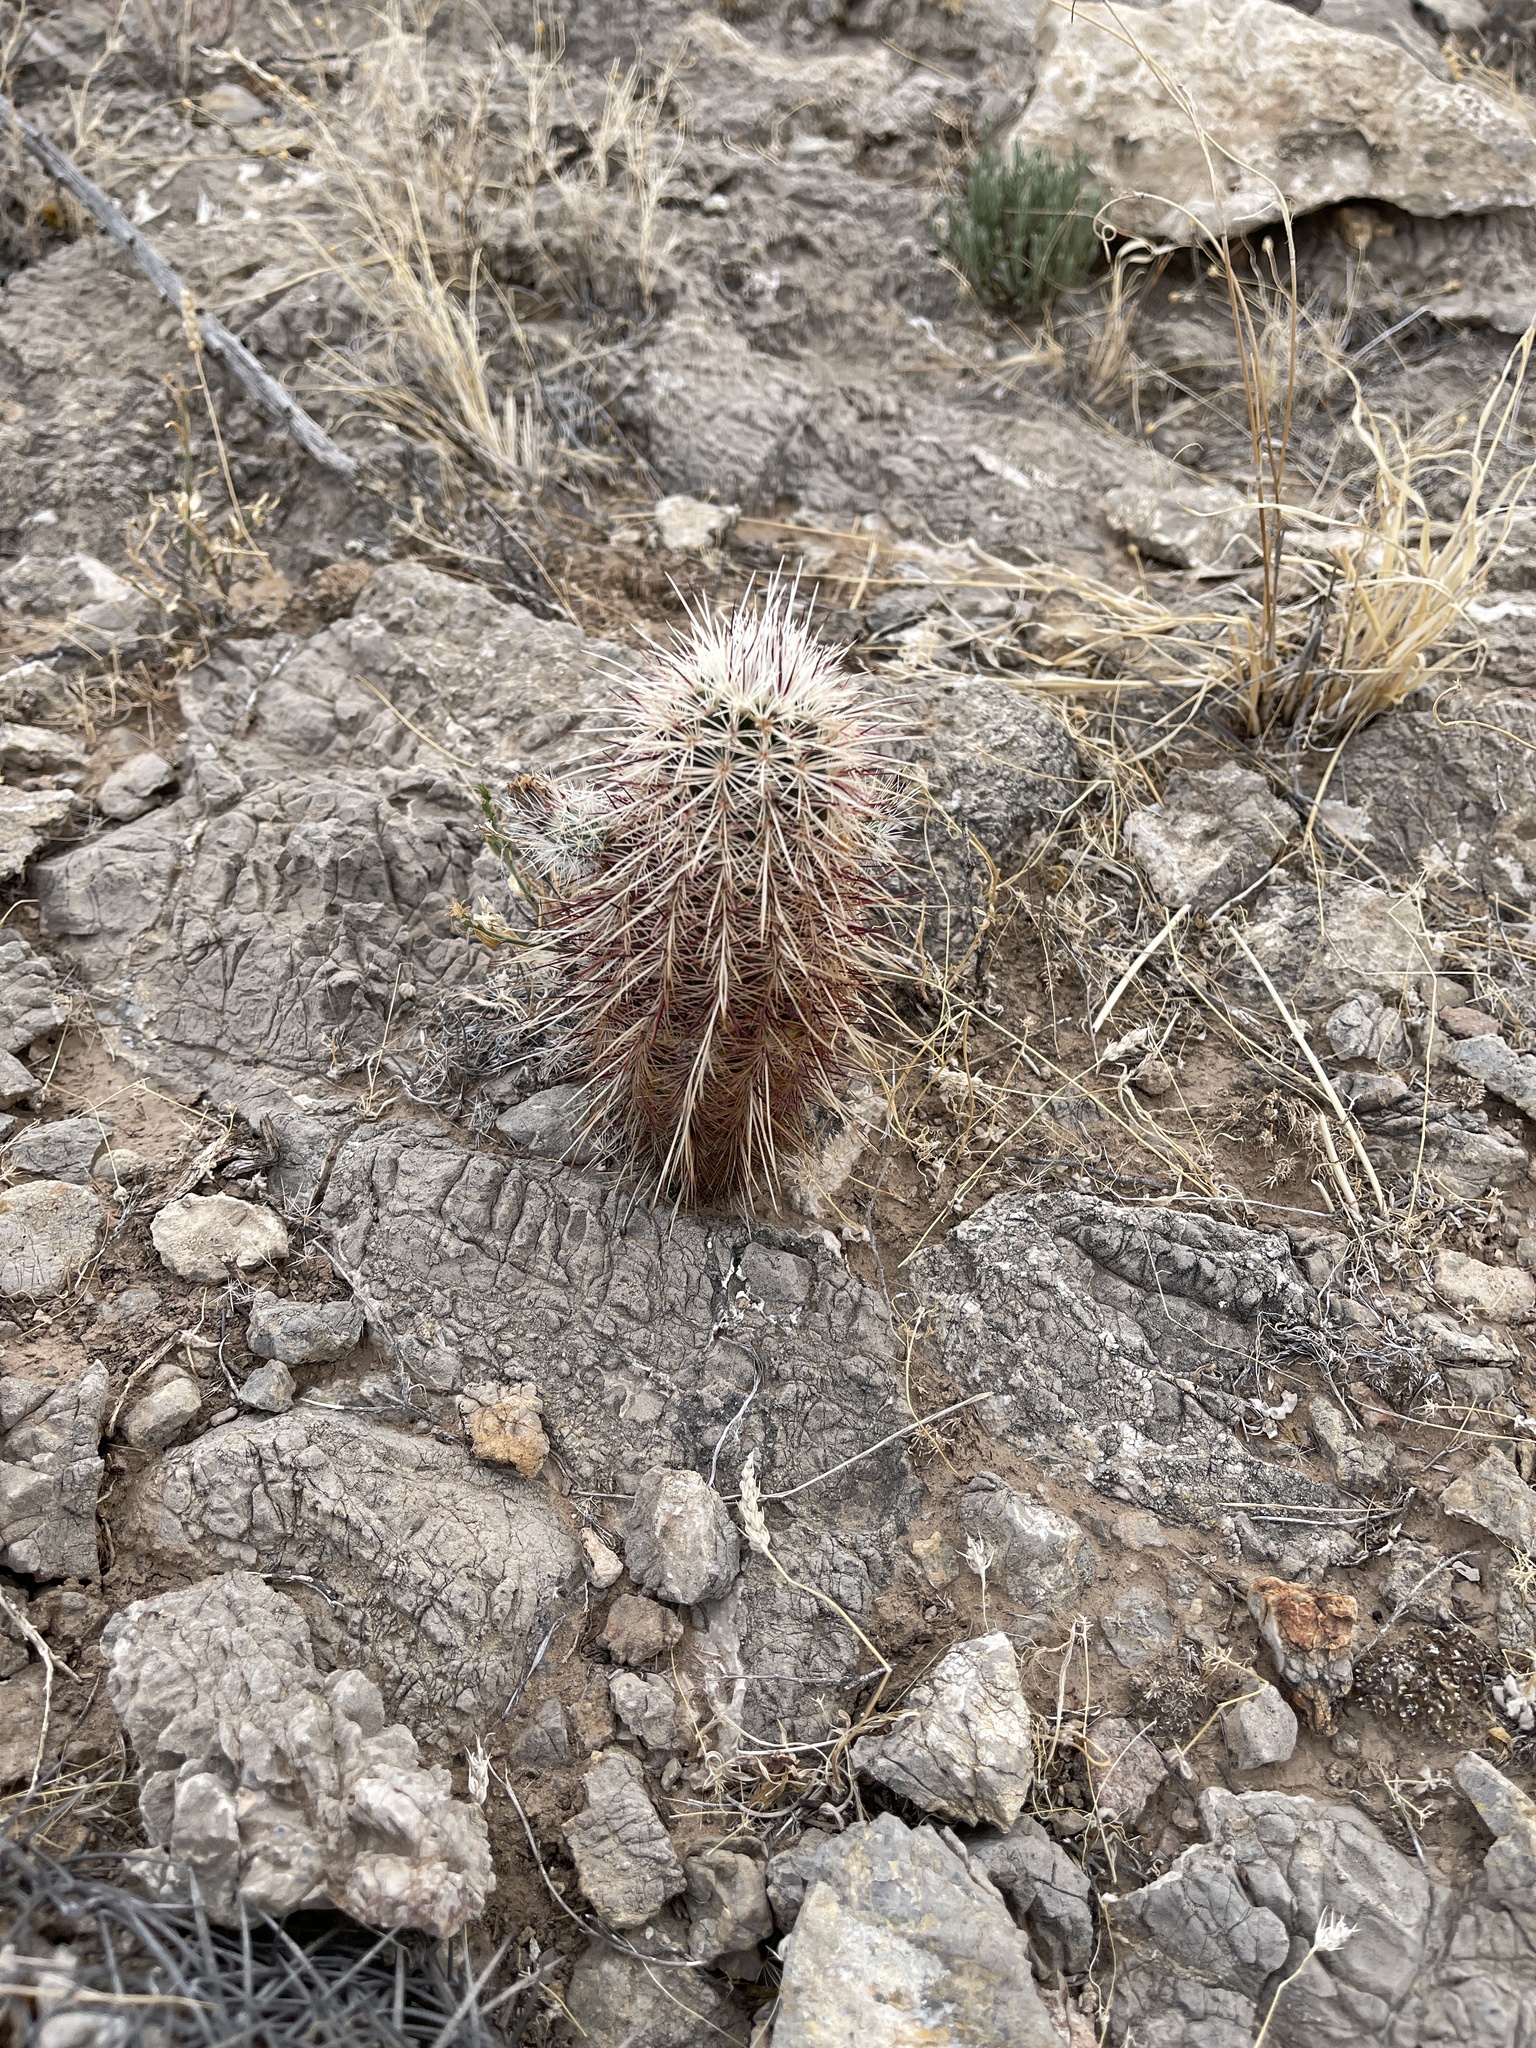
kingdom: Plantae
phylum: Tracheophyta
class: Magnoliopsida
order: Caryophyllales
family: Cactaceae
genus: Echinocereus
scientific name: Echinocereus viridiflorus
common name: Nylon hedgehog cactus
